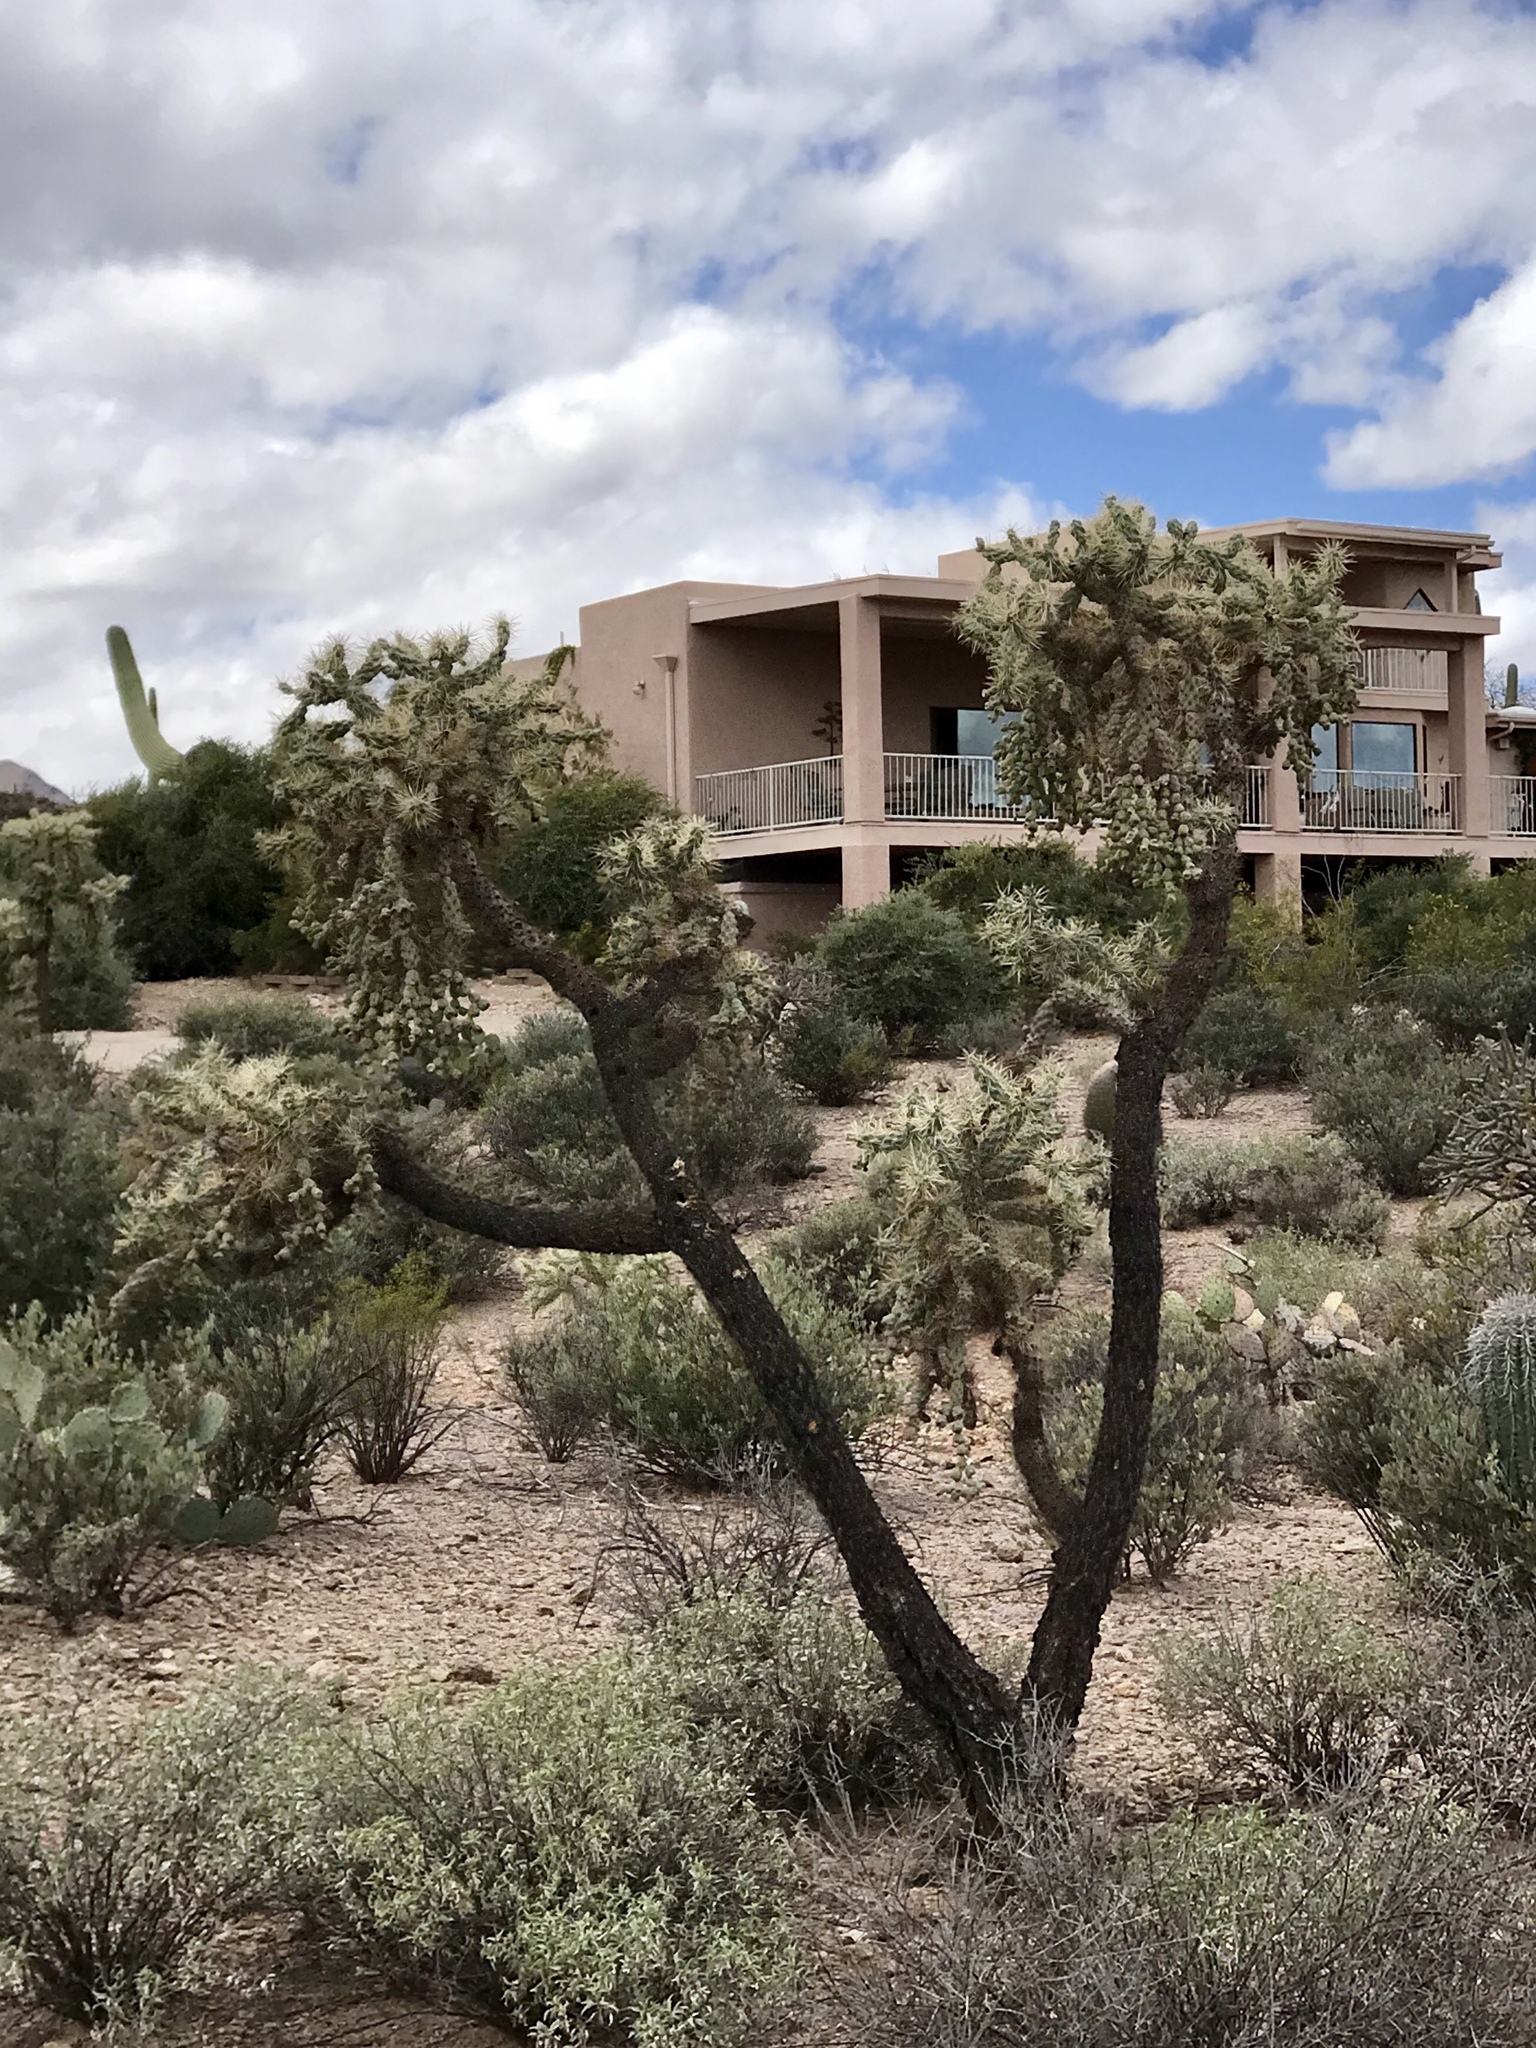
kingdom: Plantae
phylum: Tracheophyta
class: Magnoliopsida
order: Caryophyllales
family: Cactaceae
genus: Cylindropuntia
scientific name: Cylindropuntia fulgida
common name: Jumping cholla
